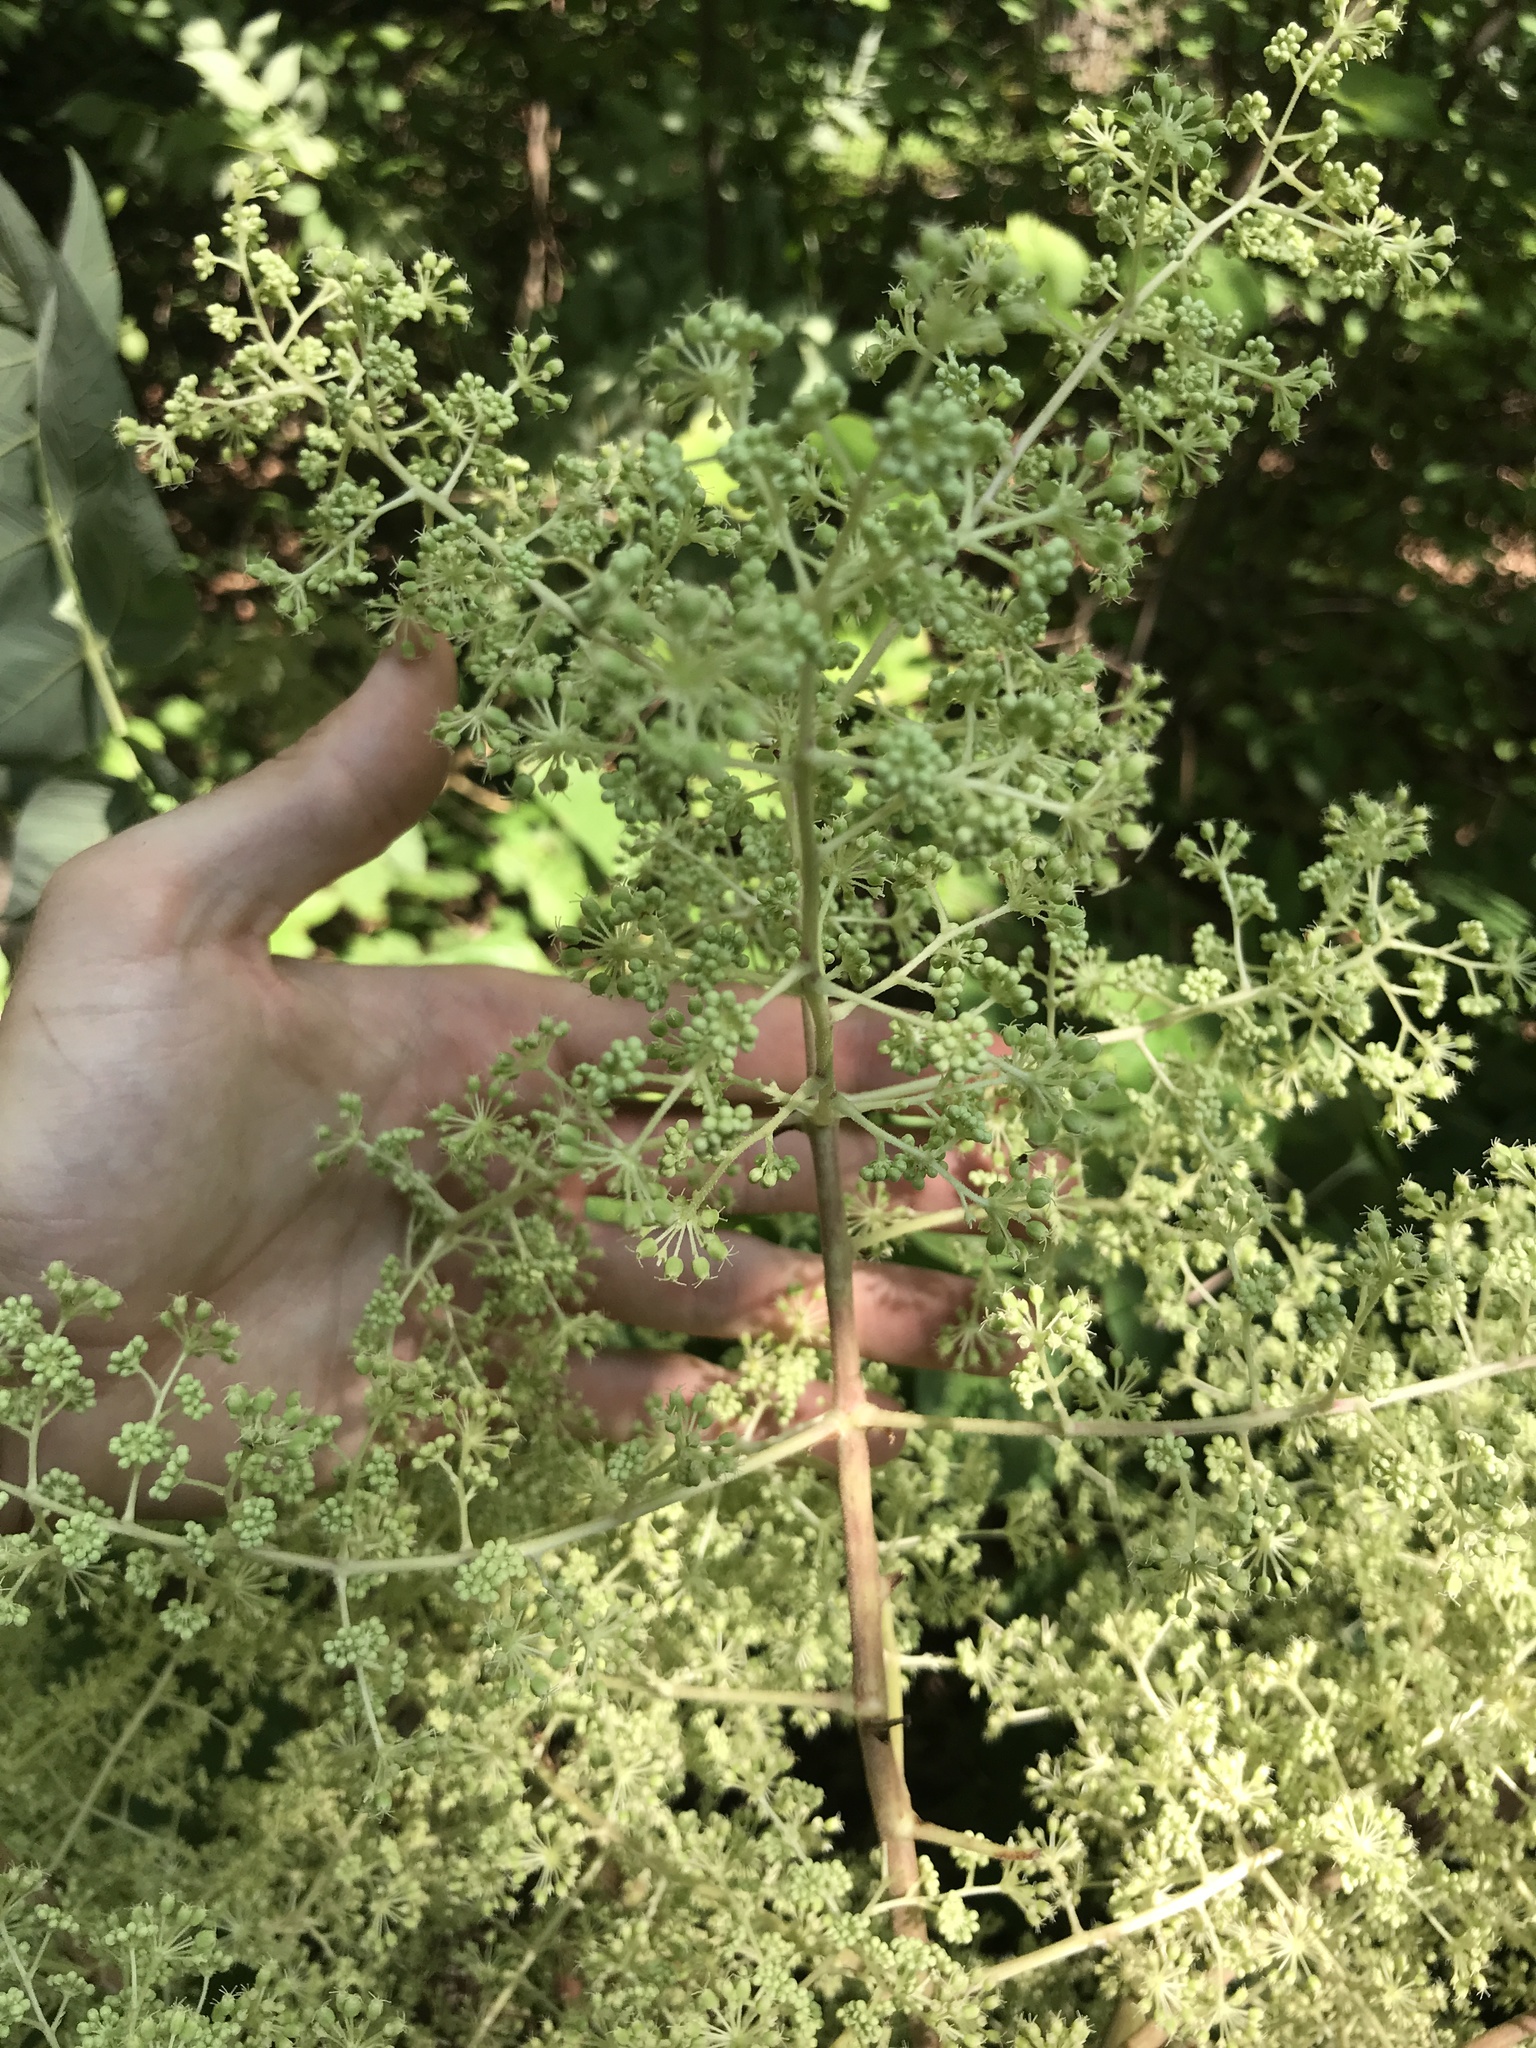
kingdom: Plantae
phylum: Tracheophyta
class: Magnoliopsida
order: Apiales
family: Araliaceae
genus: Aralia
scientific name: Aralia elata
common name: Japanese angelica-tree
